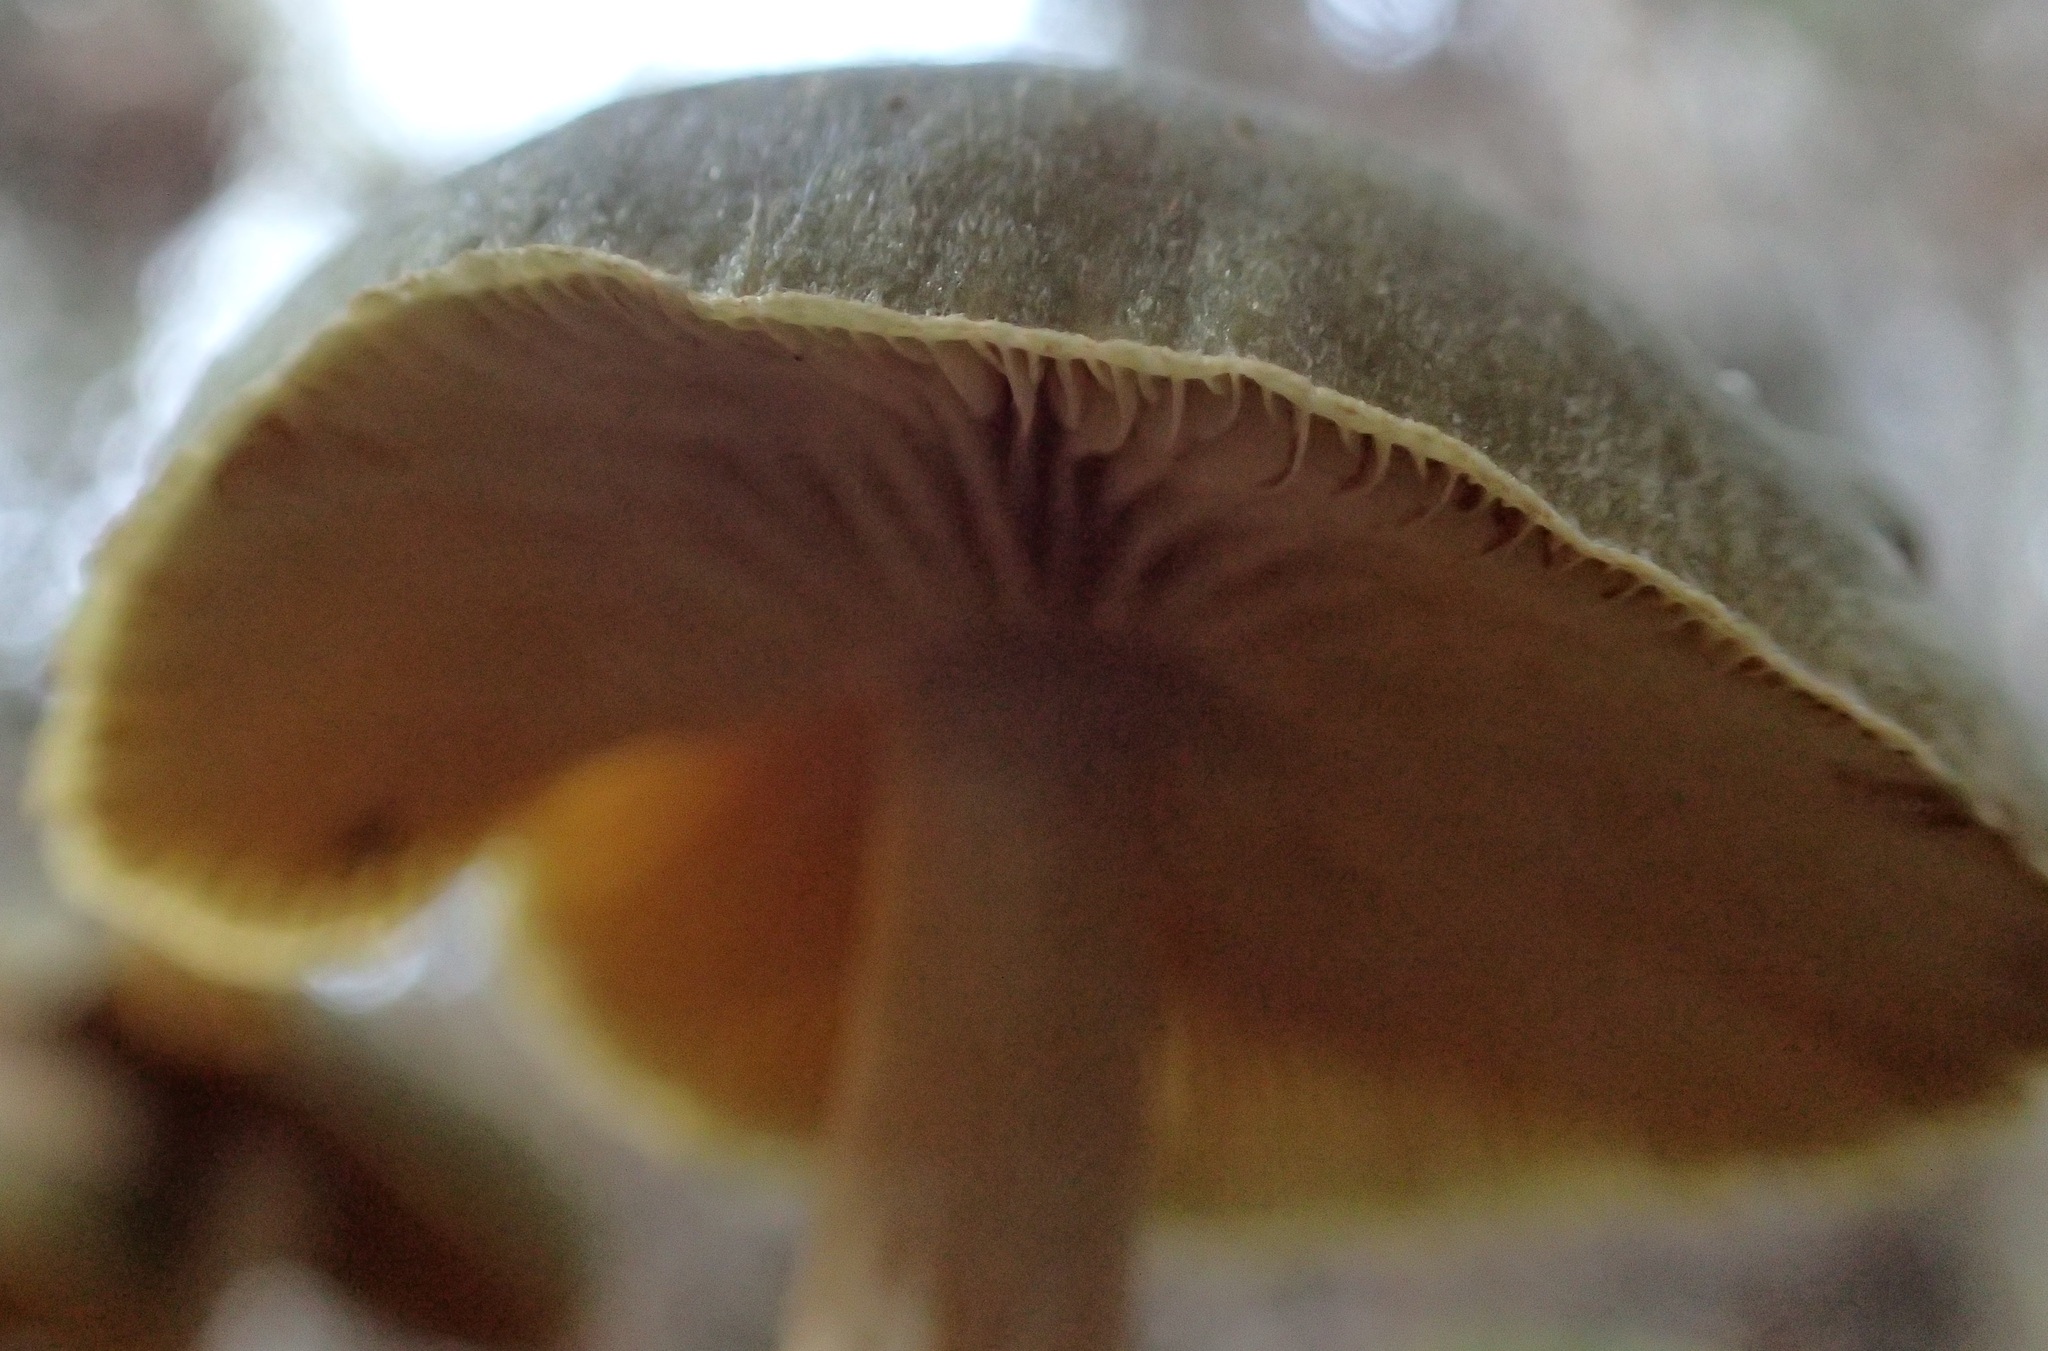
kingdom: Fungi
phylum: Basidiomycota
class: Agaricomycetes
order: Agaricales
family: Cortinariaceae
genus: Cortinarius
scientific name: Cortinarius austrovenetus
